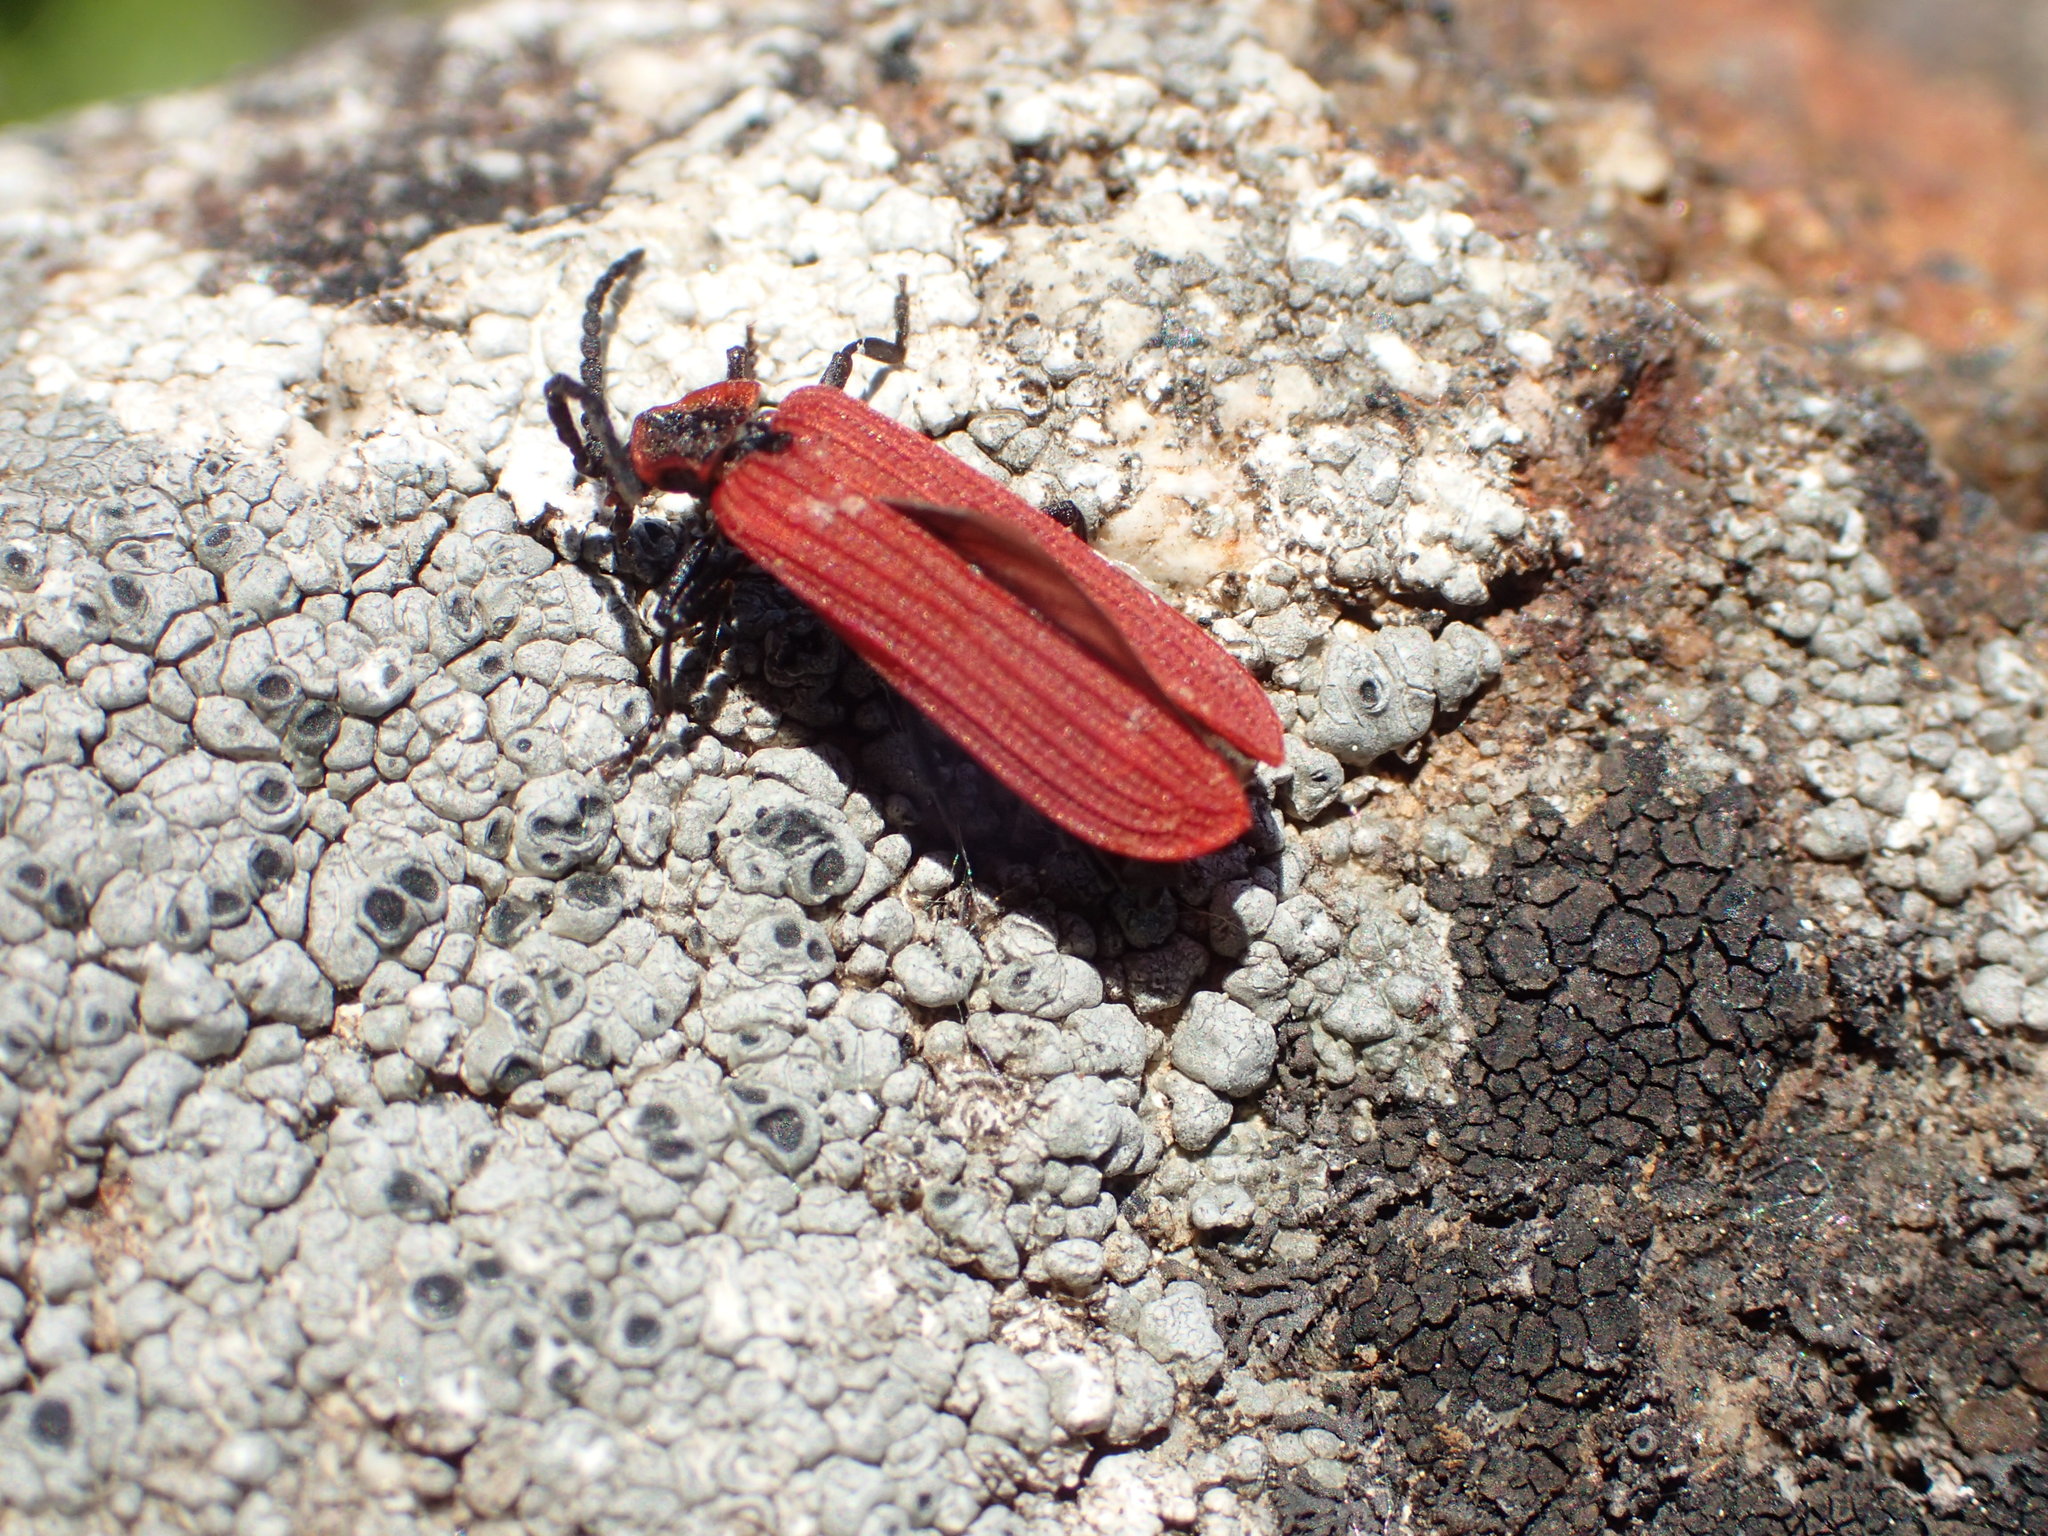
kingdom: Animalia
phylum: Arthropoda
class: Insecta
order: Coleoptera
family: Lycidae
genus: Dictyoptera
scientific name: Dictyoptera aurora
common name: Golden net-winged beetle
